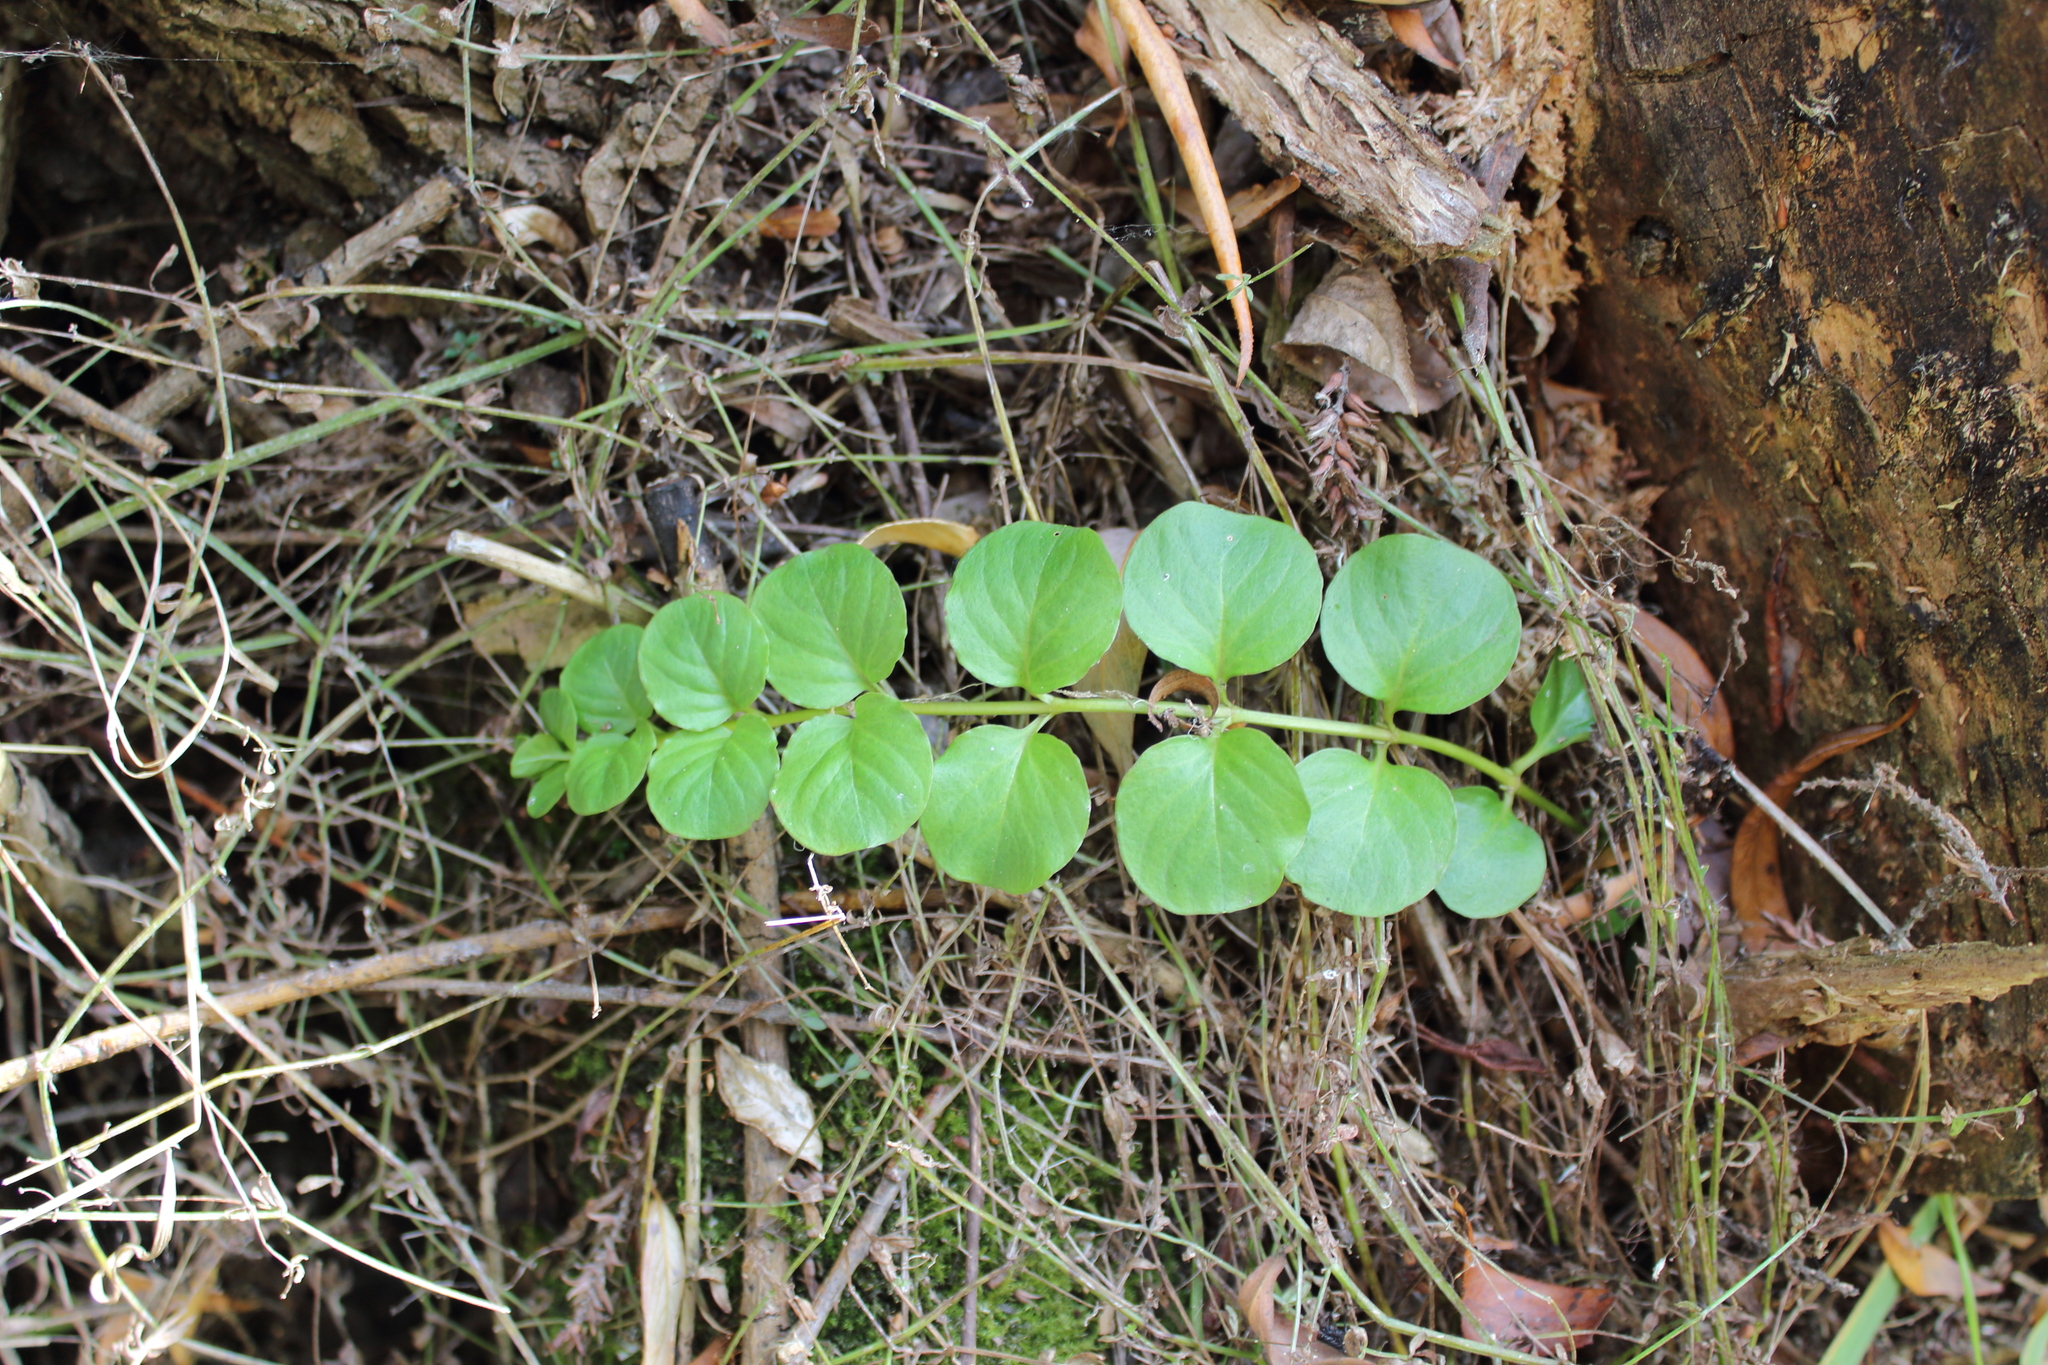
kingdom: Plantae
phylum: Tracheophyta
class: Magnoliopsida
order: Ericales
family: Primulaceae
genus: Lysimachia
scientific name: Lysimachia nummularia
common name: Moneywort
